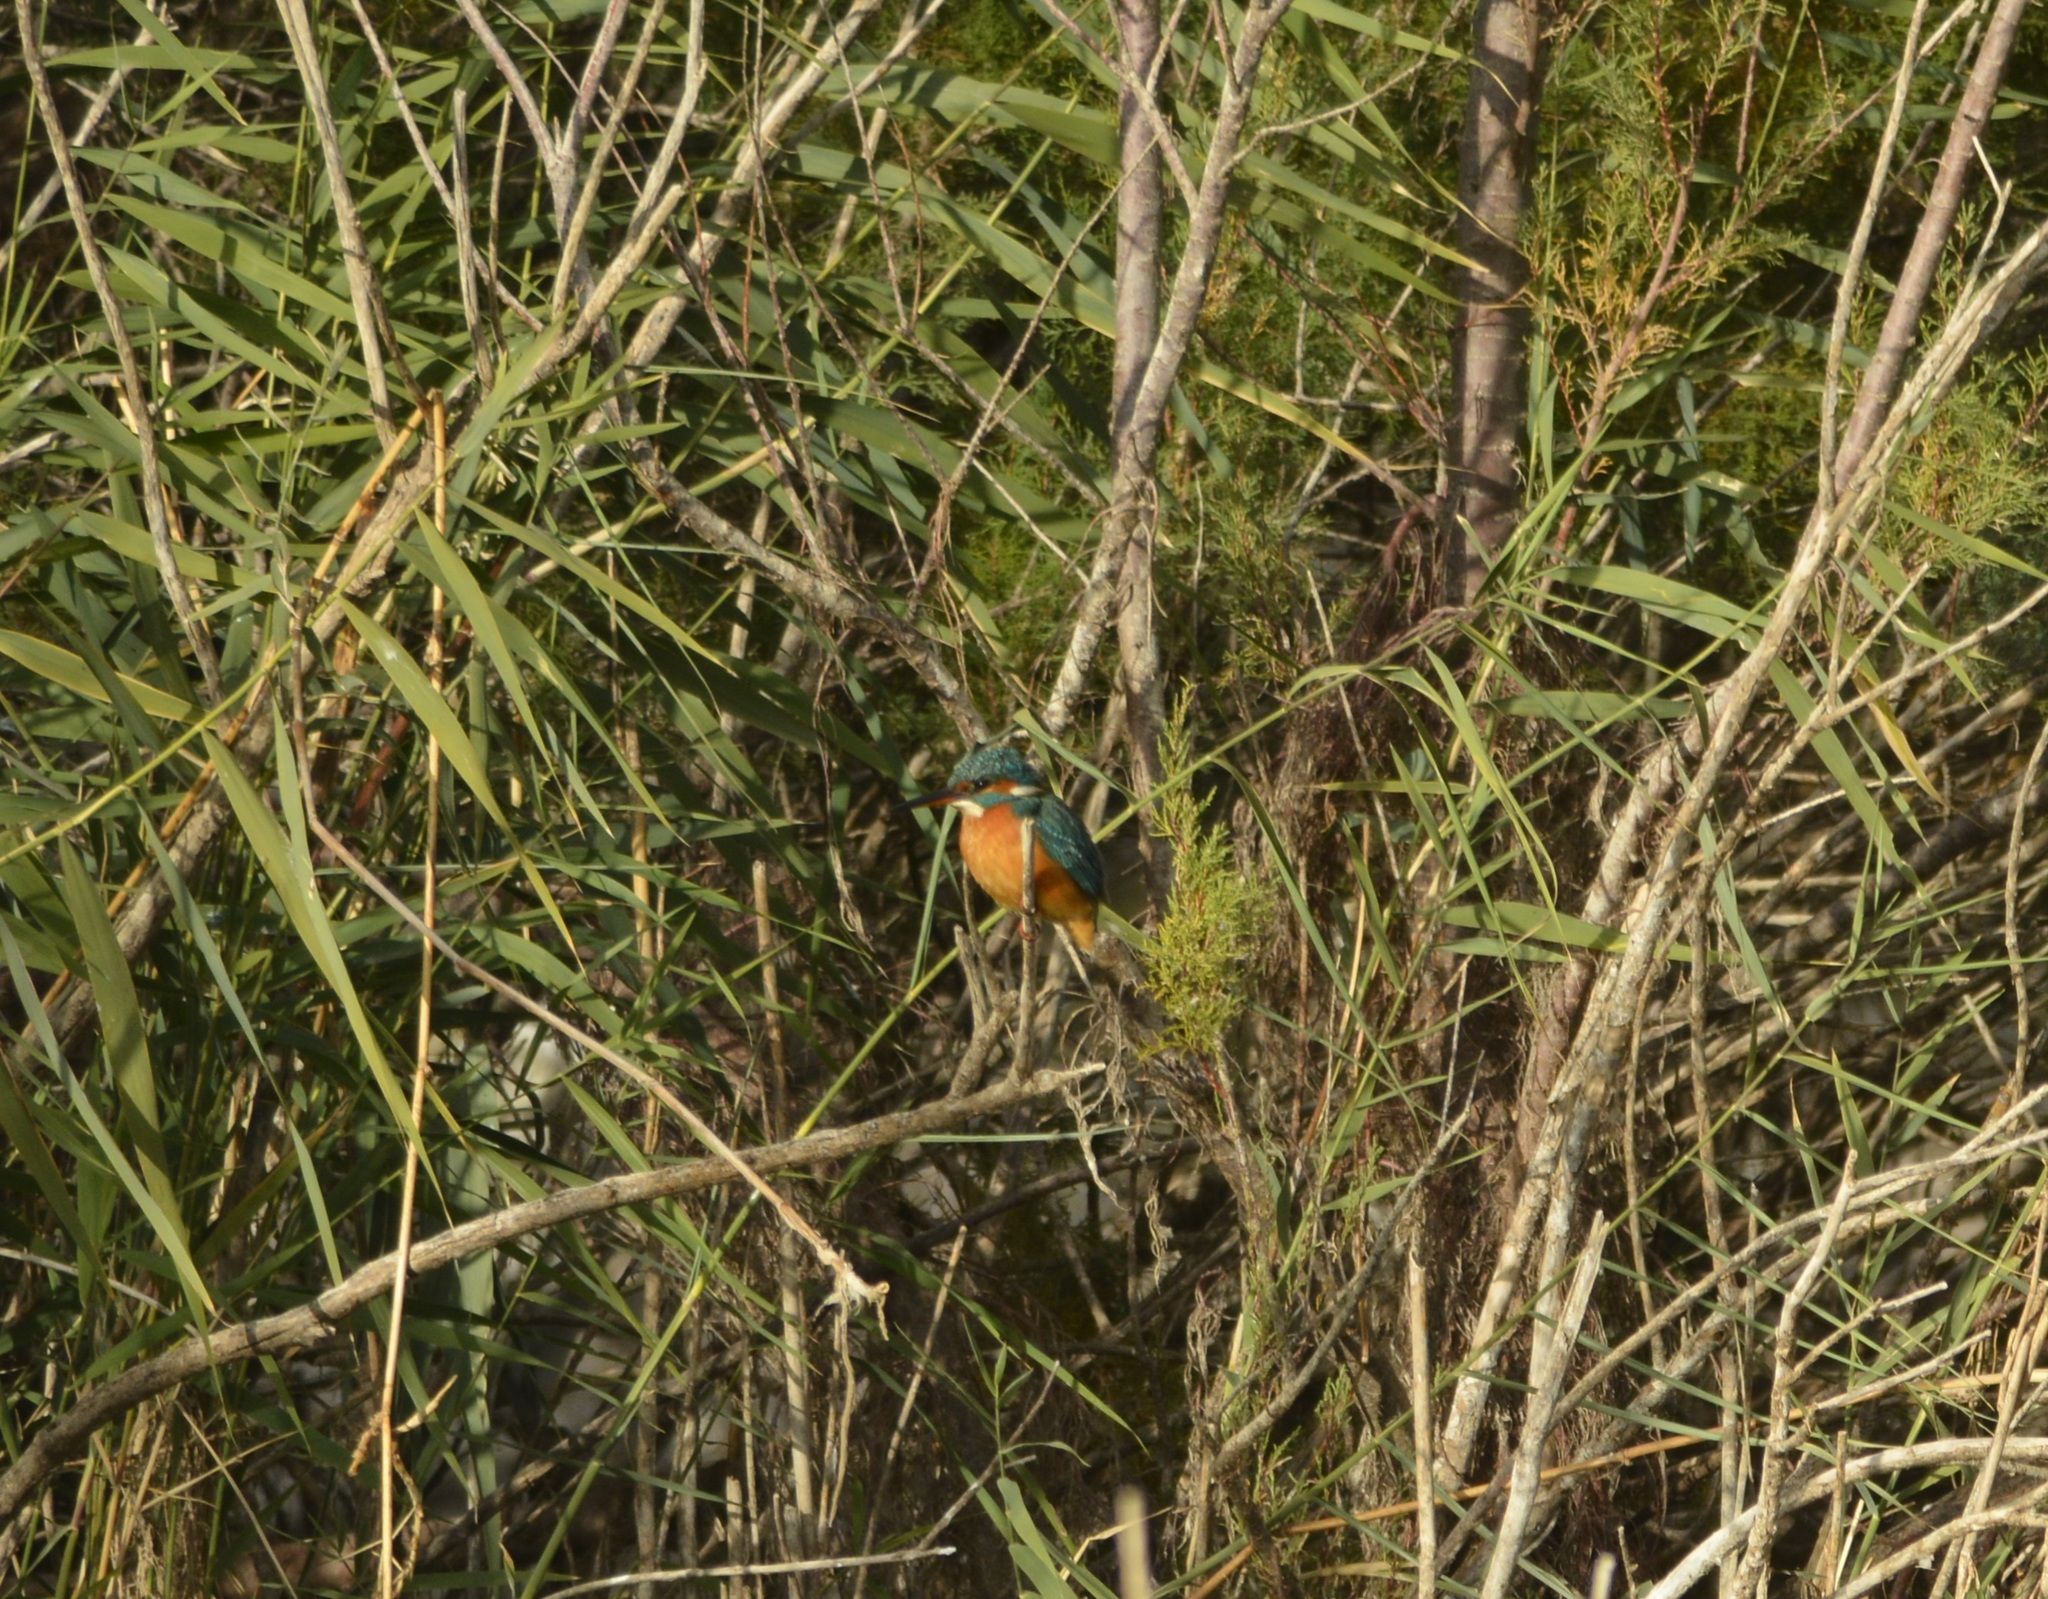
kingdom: Animalia
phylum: Chordata
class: Aves
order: Coraciiformes
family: Alcedinidae
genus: Alcedo
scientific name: Alcedo atthis
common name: Common kingfisher
